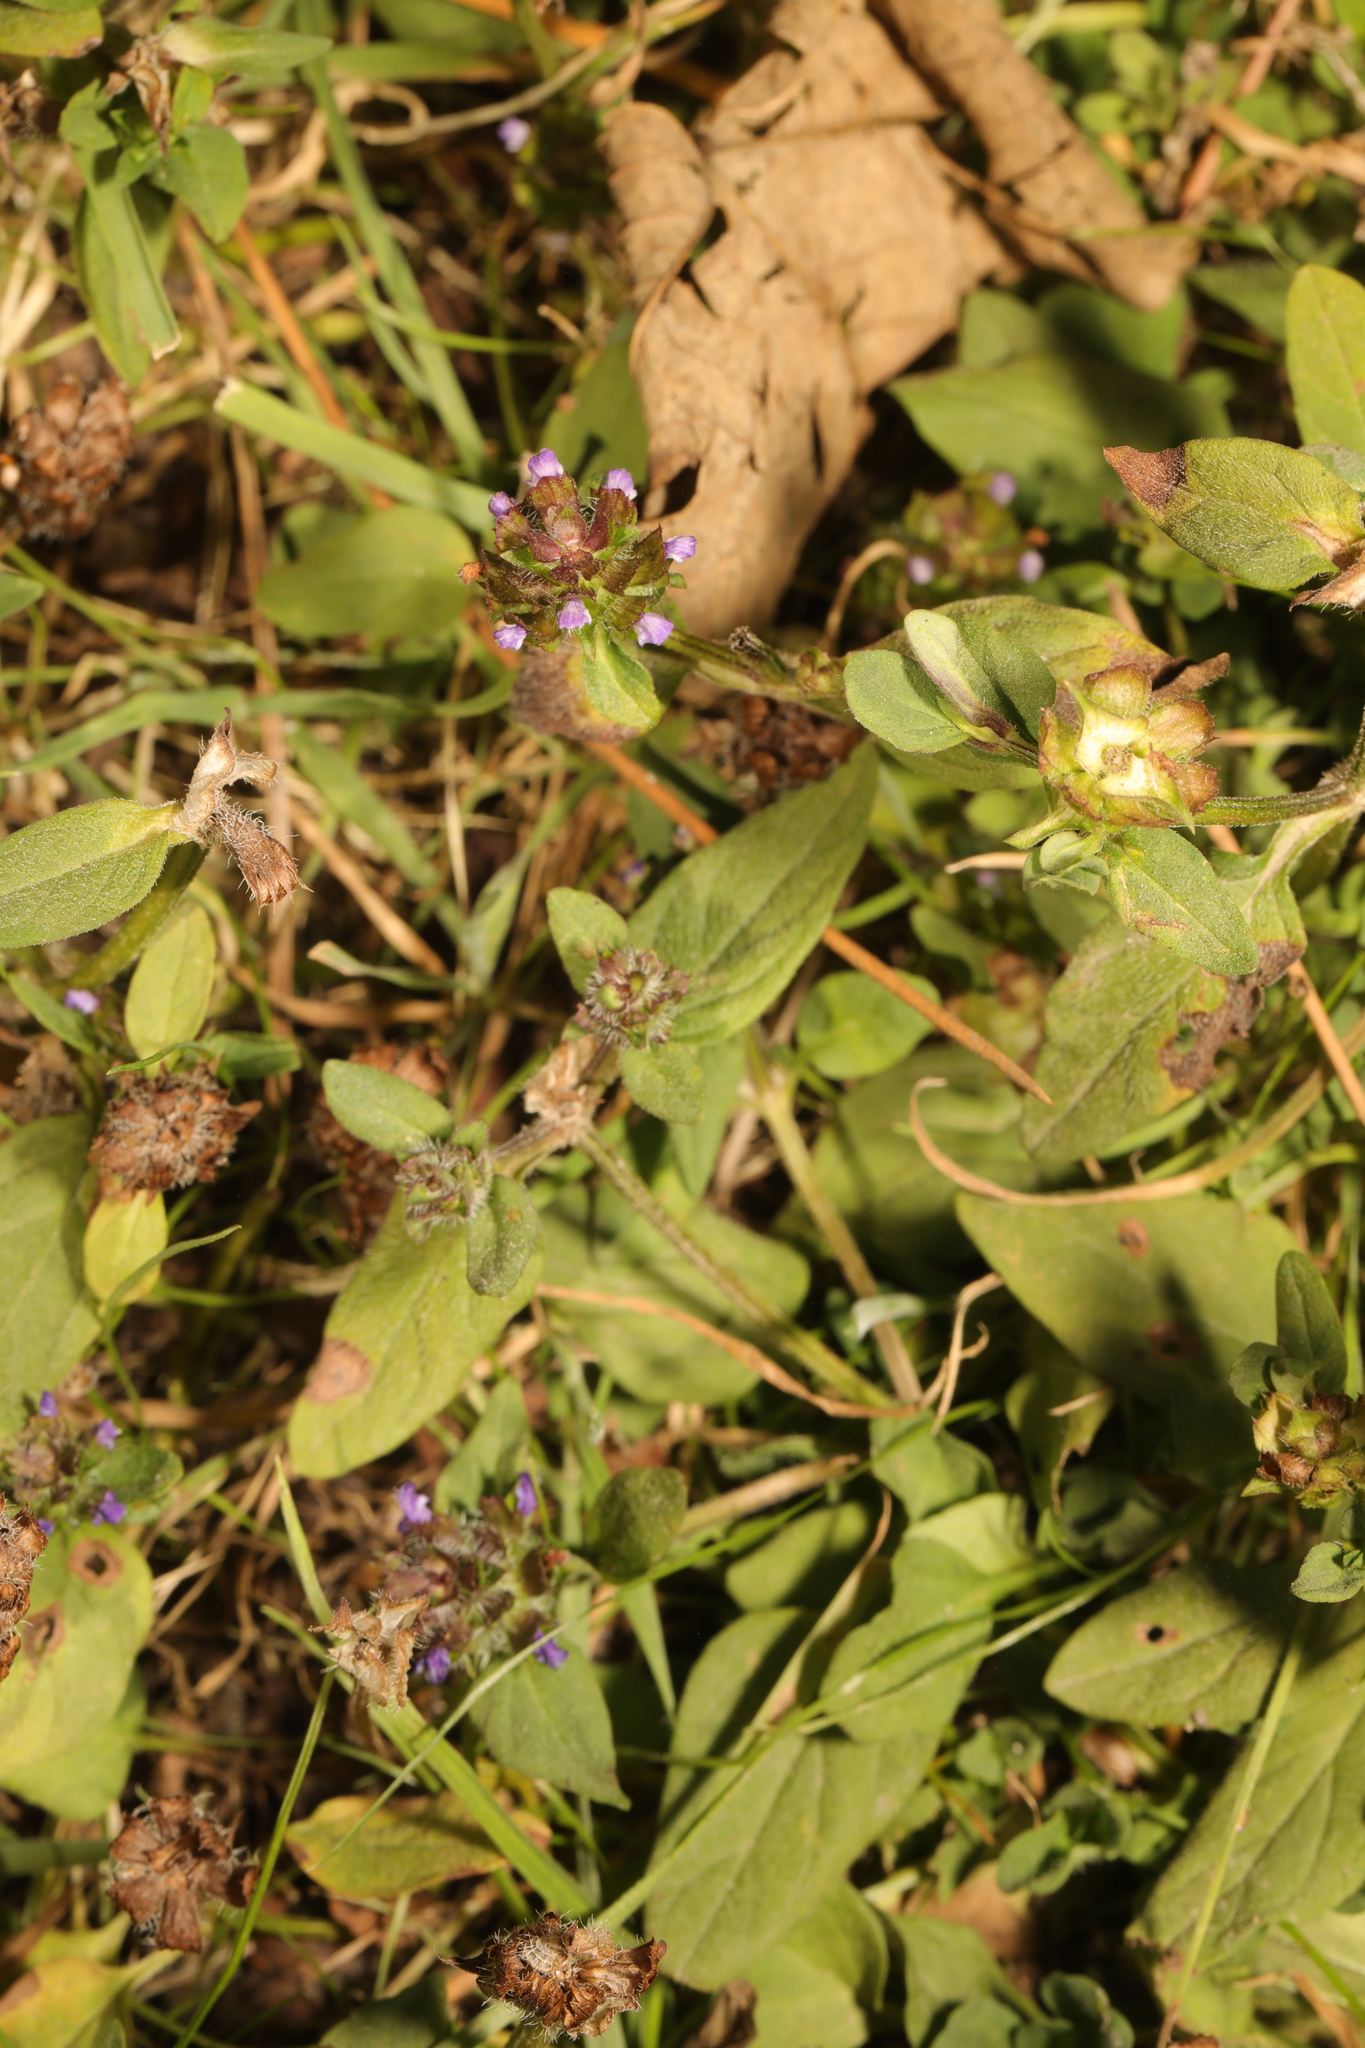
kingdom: Plantae
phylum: Tracheophyta
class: Magnoliopsida
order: Lamiales
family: Lamiaceae
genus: Prunella
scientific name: Prunella vulgaris
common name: Heal-all
